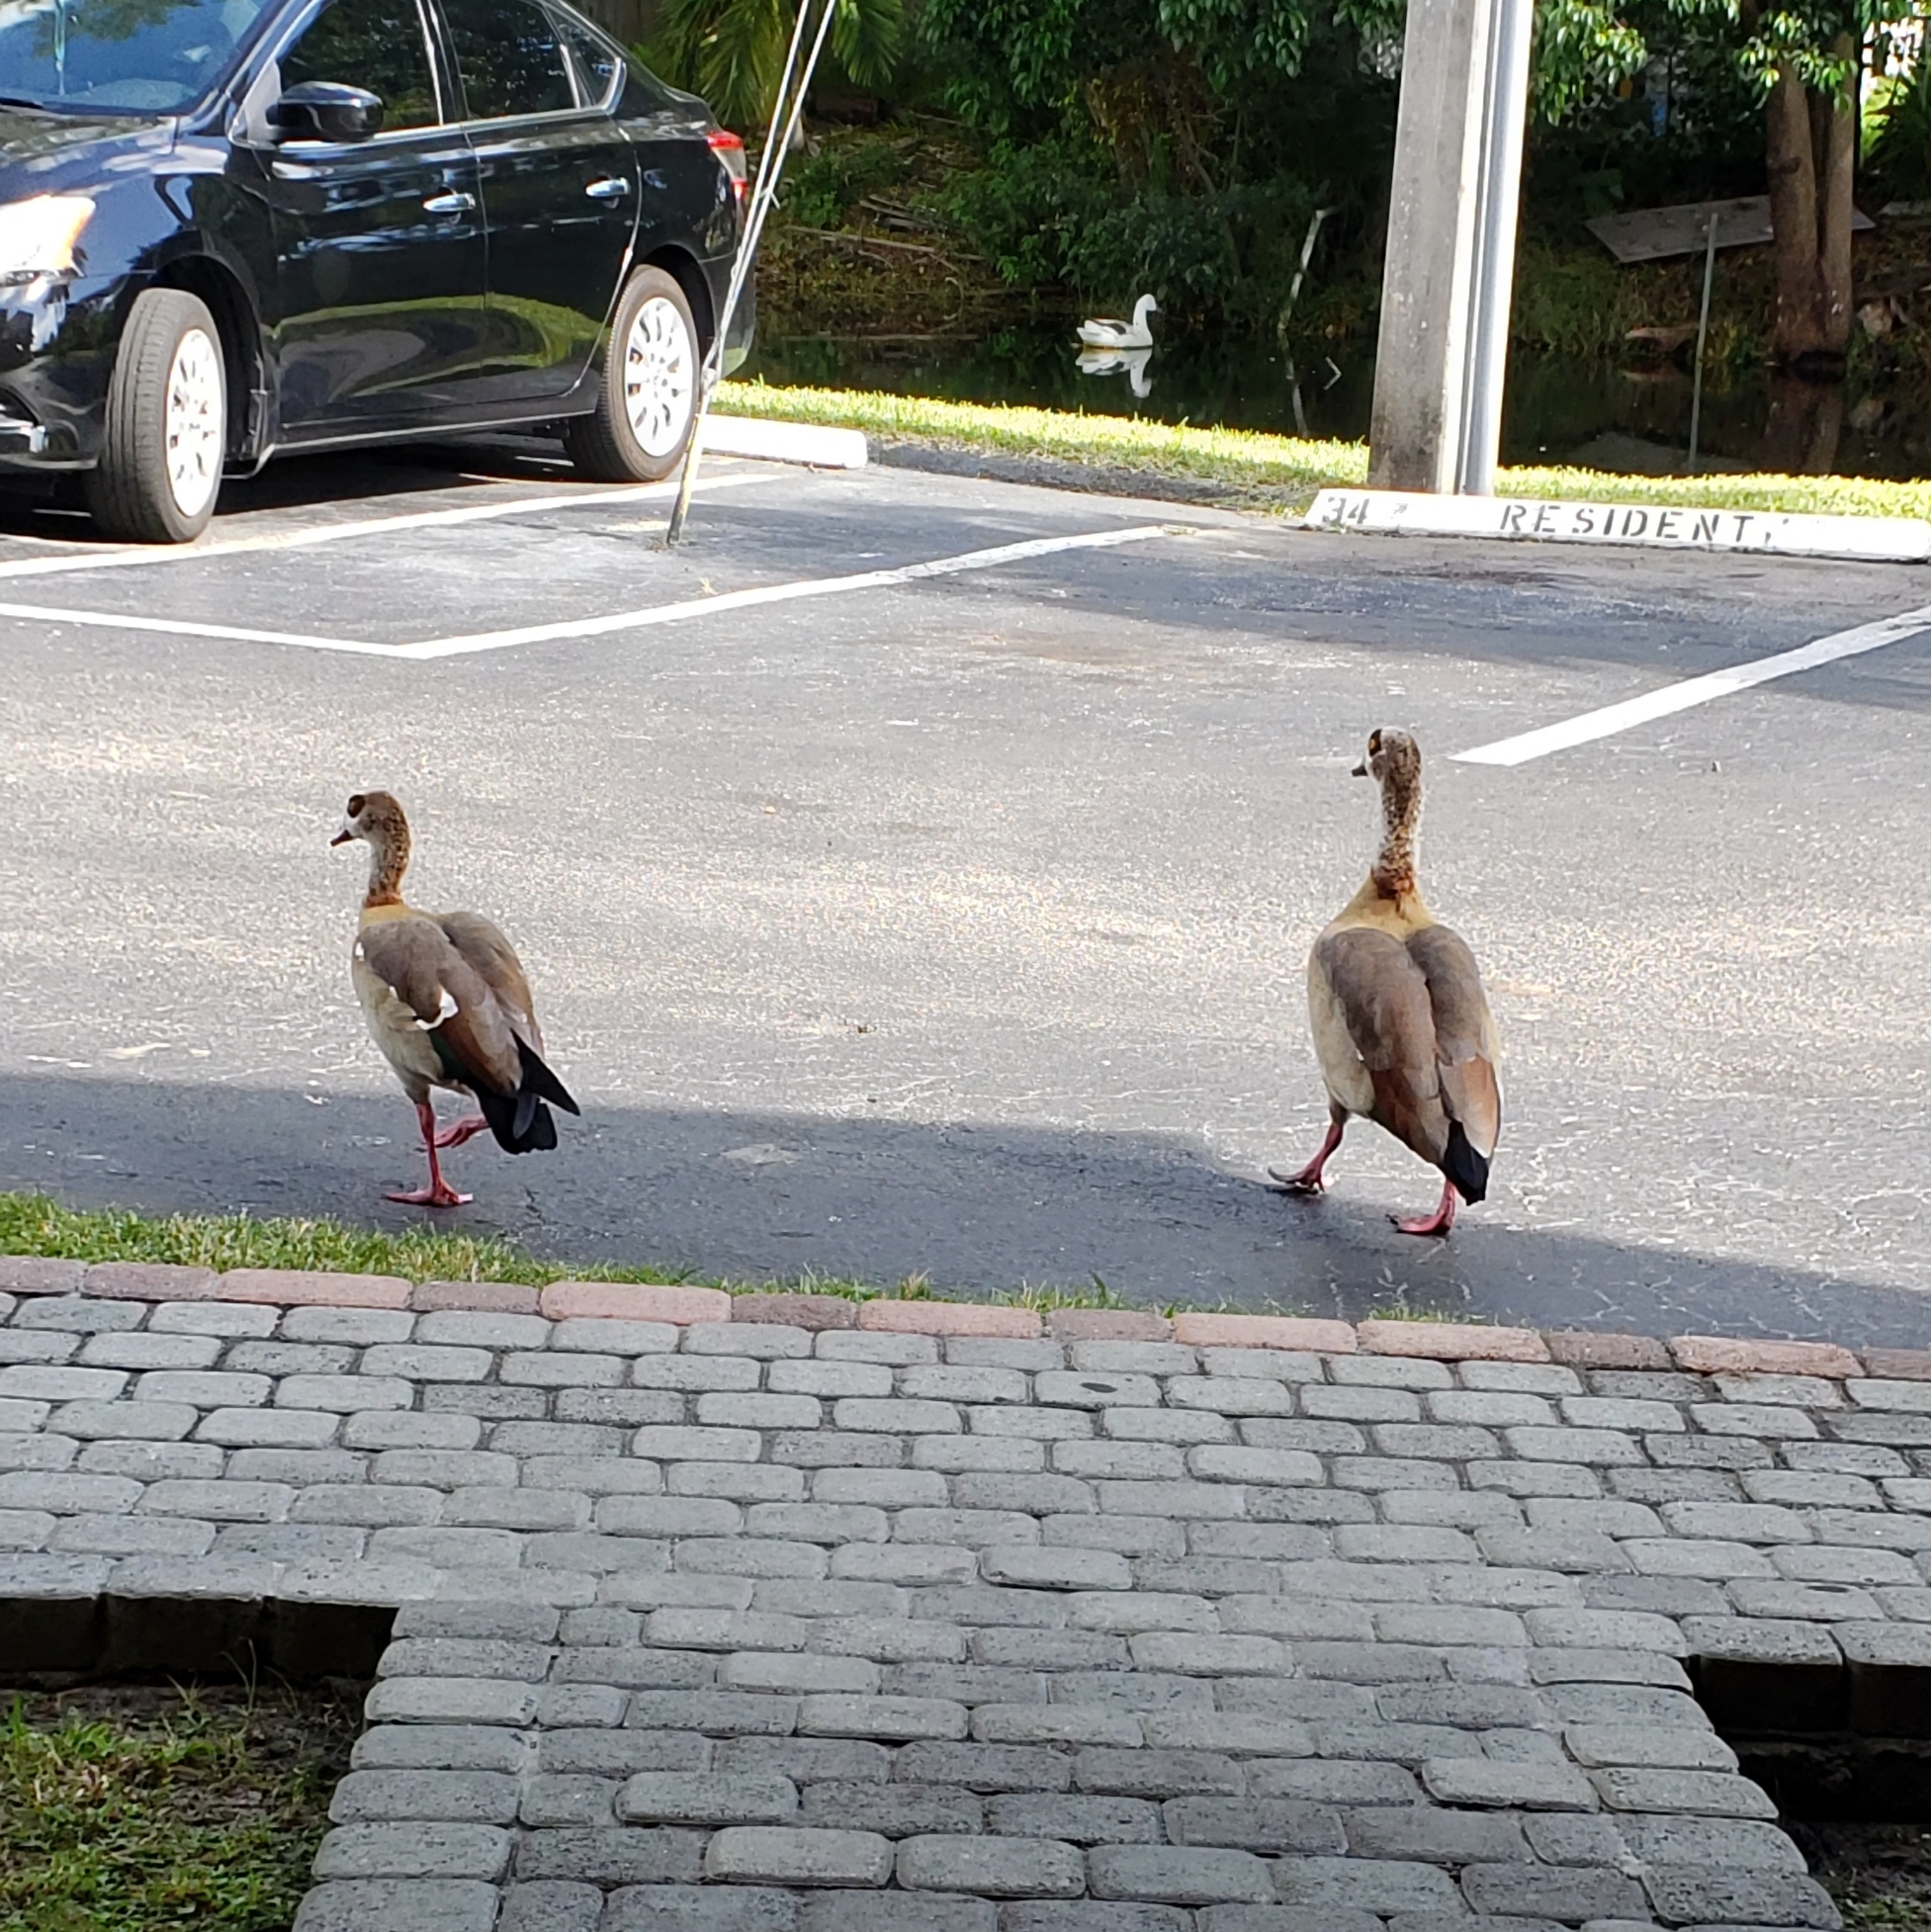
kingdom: Animalia
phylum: Chordata
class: Aves
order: Anseriformes
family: Anatidae
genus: Alopochen
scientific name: Alopochen aegyptiaca
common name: Egyptian goose
